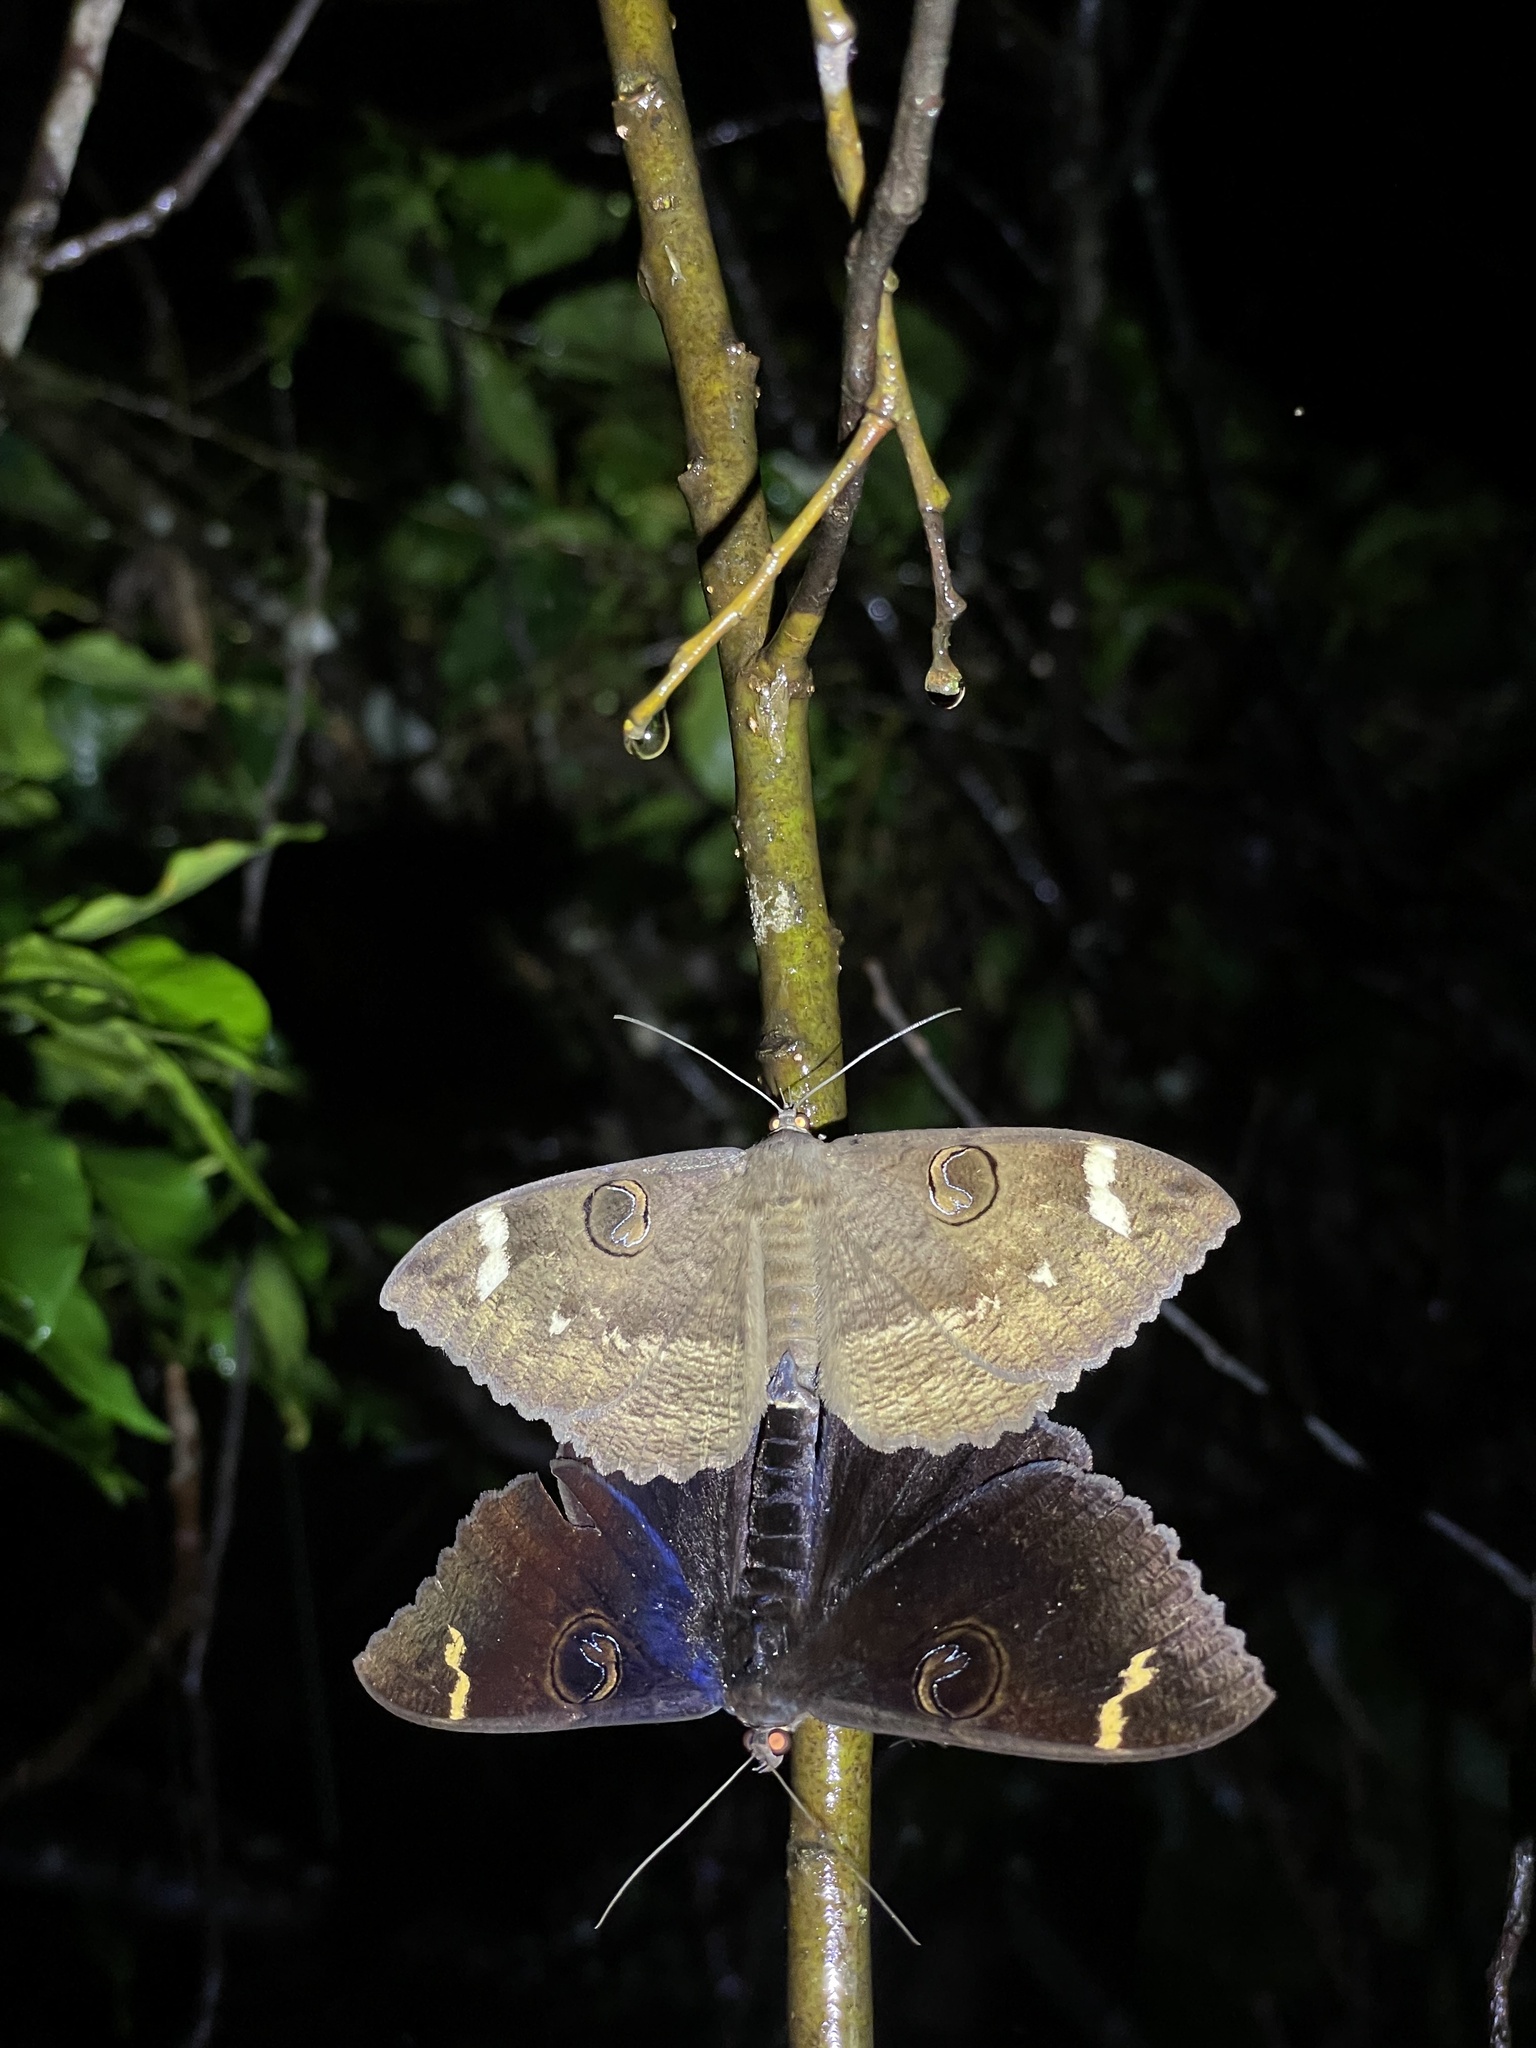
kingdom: Animalia
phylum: Arthropoda
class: Insecta
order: Lepidoptera
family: Erebidae
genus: Erebus
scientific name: Erebus hieroglyphica
